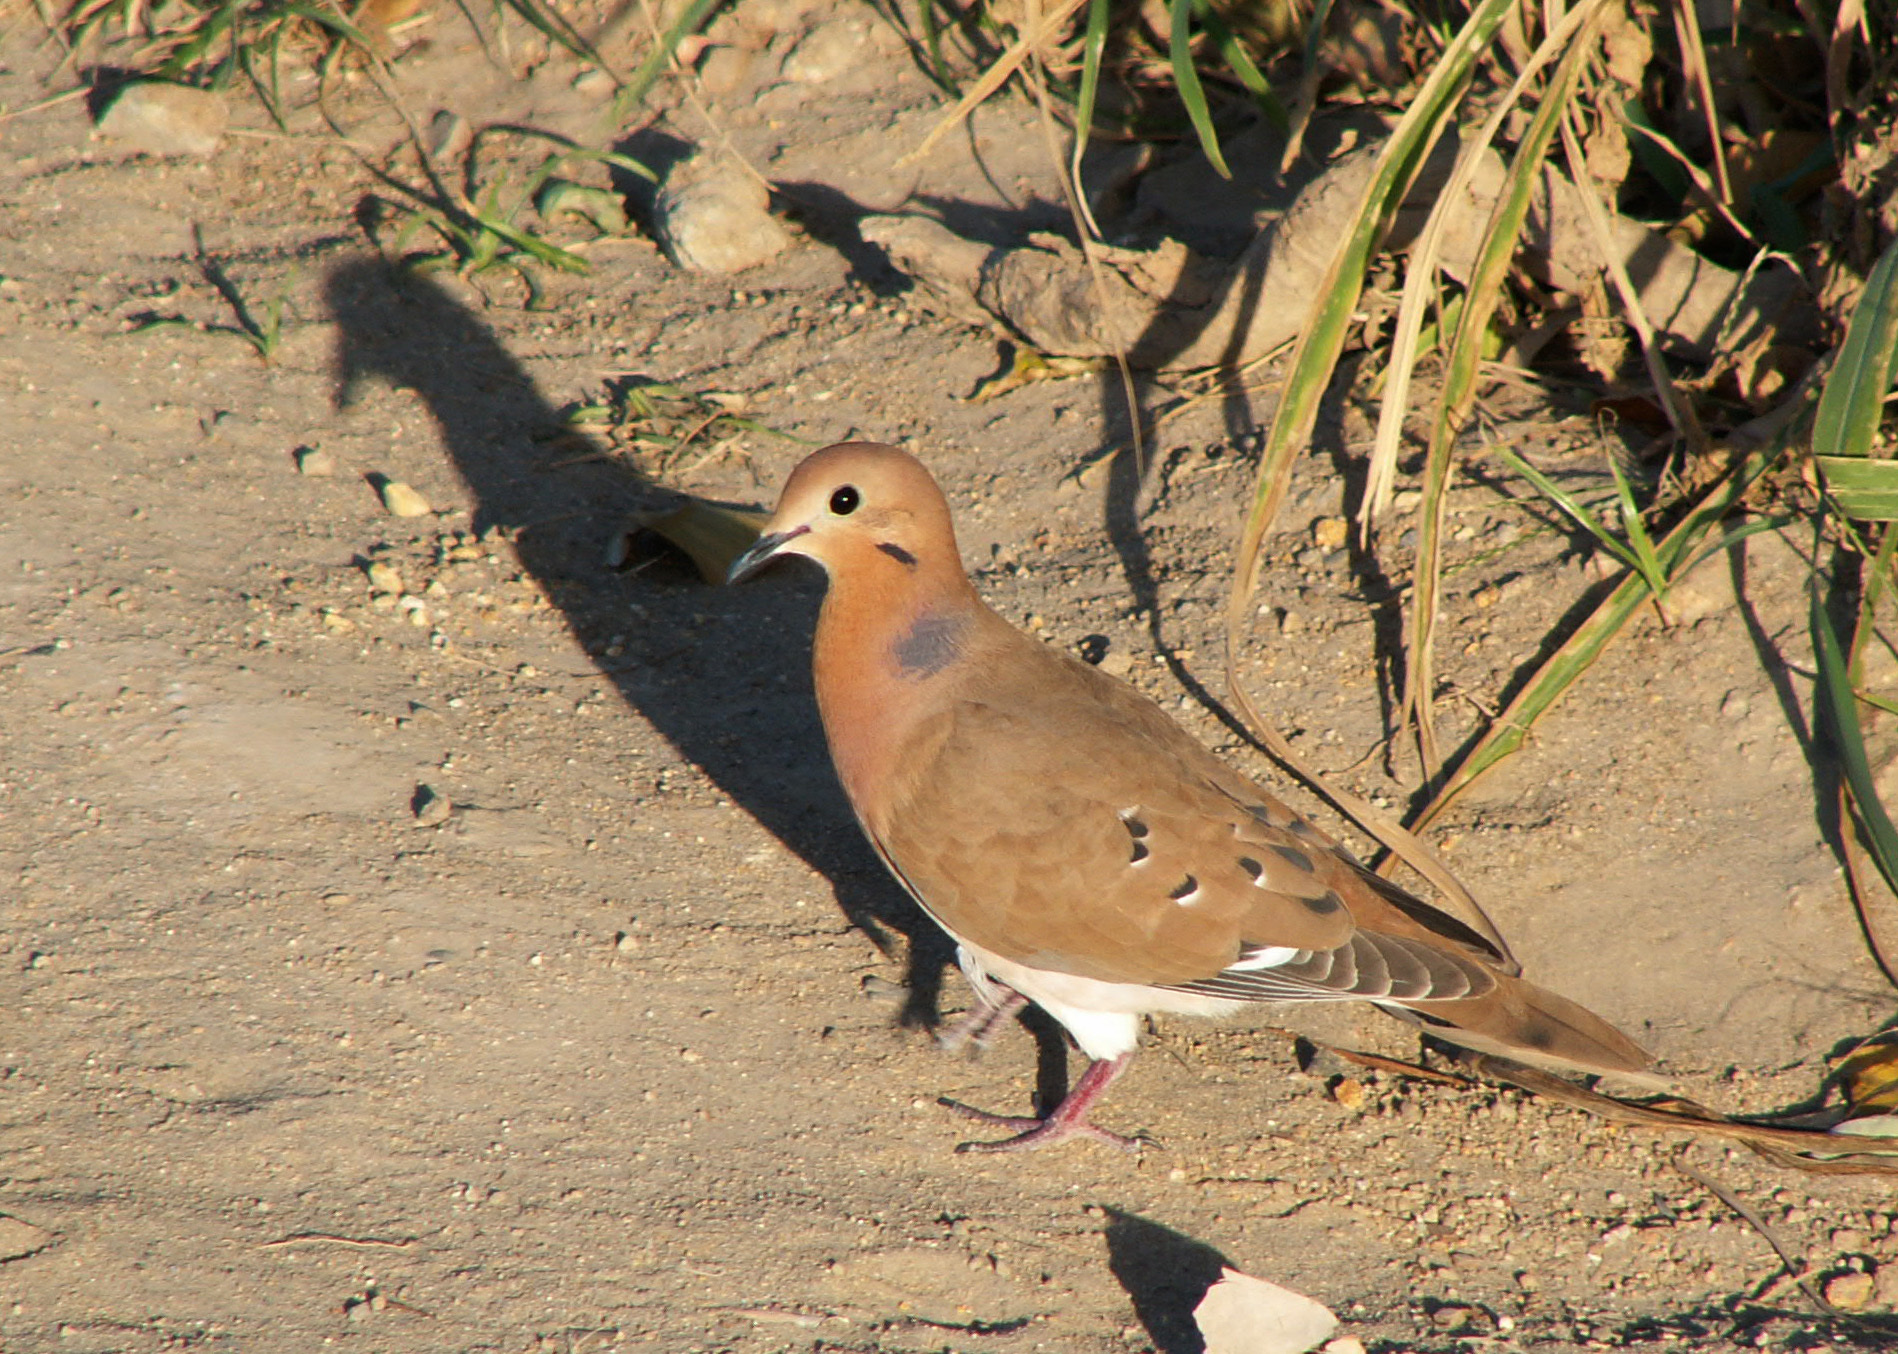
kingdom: Animalia
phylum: Chordata
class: Aves
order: Columbiformes
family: Columbidae
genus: Zenaida
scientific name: Zenaida aurita
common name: Zenaida dove
